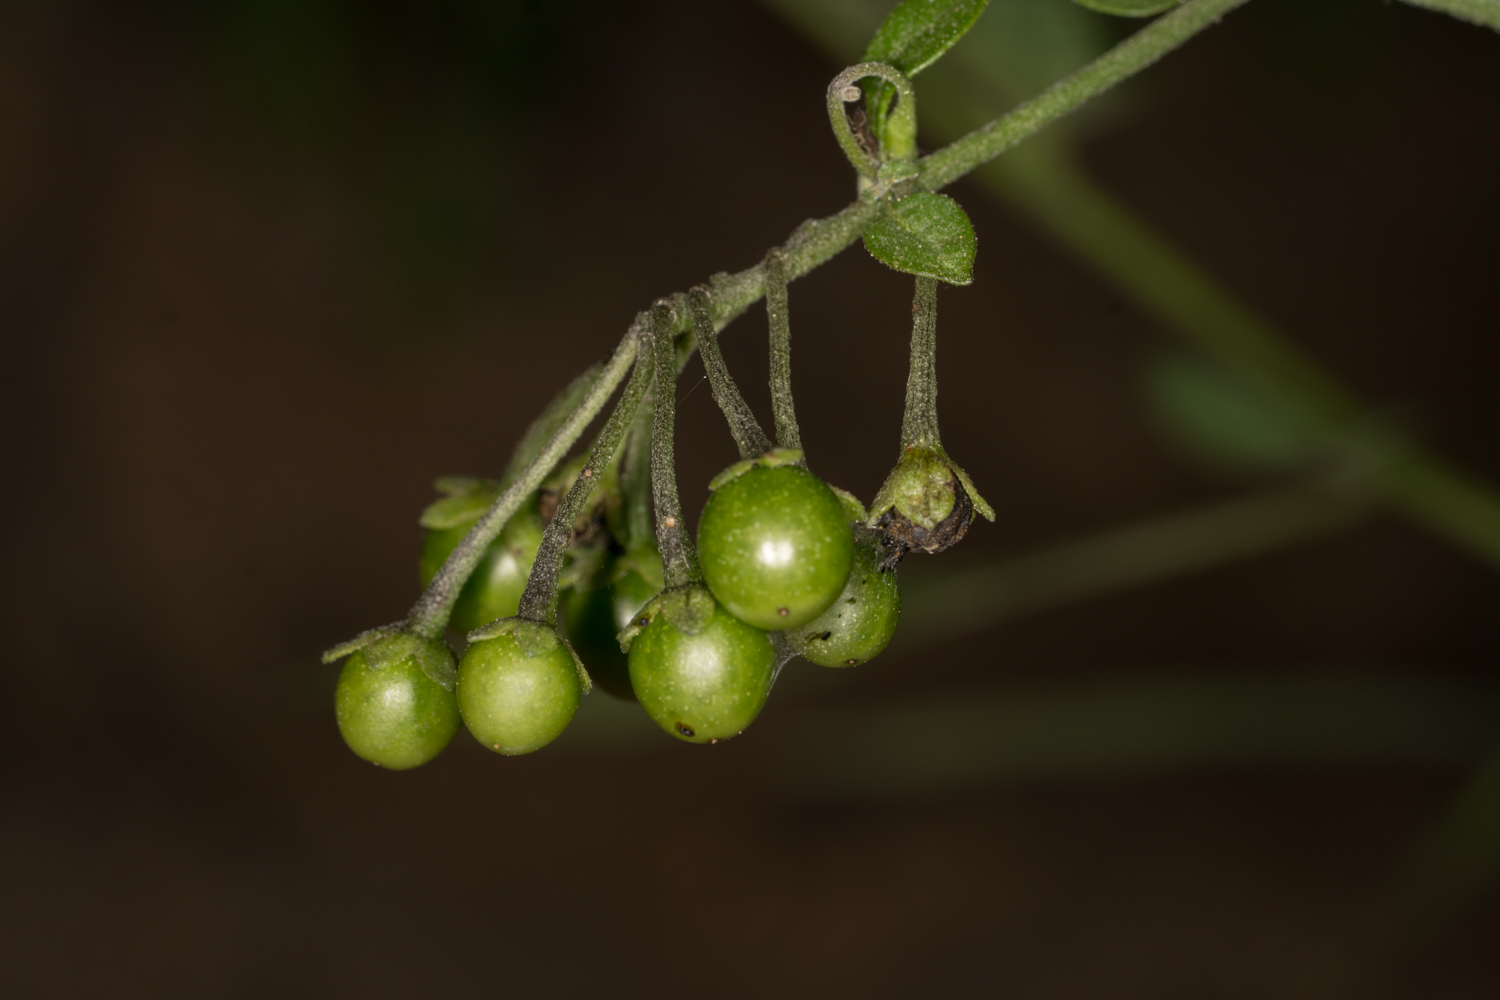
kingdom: Plantae
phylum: Tracheophyta
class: Magnoliopsida
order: Solanales
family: Solanaceae
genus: Solanum
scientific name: Solanum douglasii
